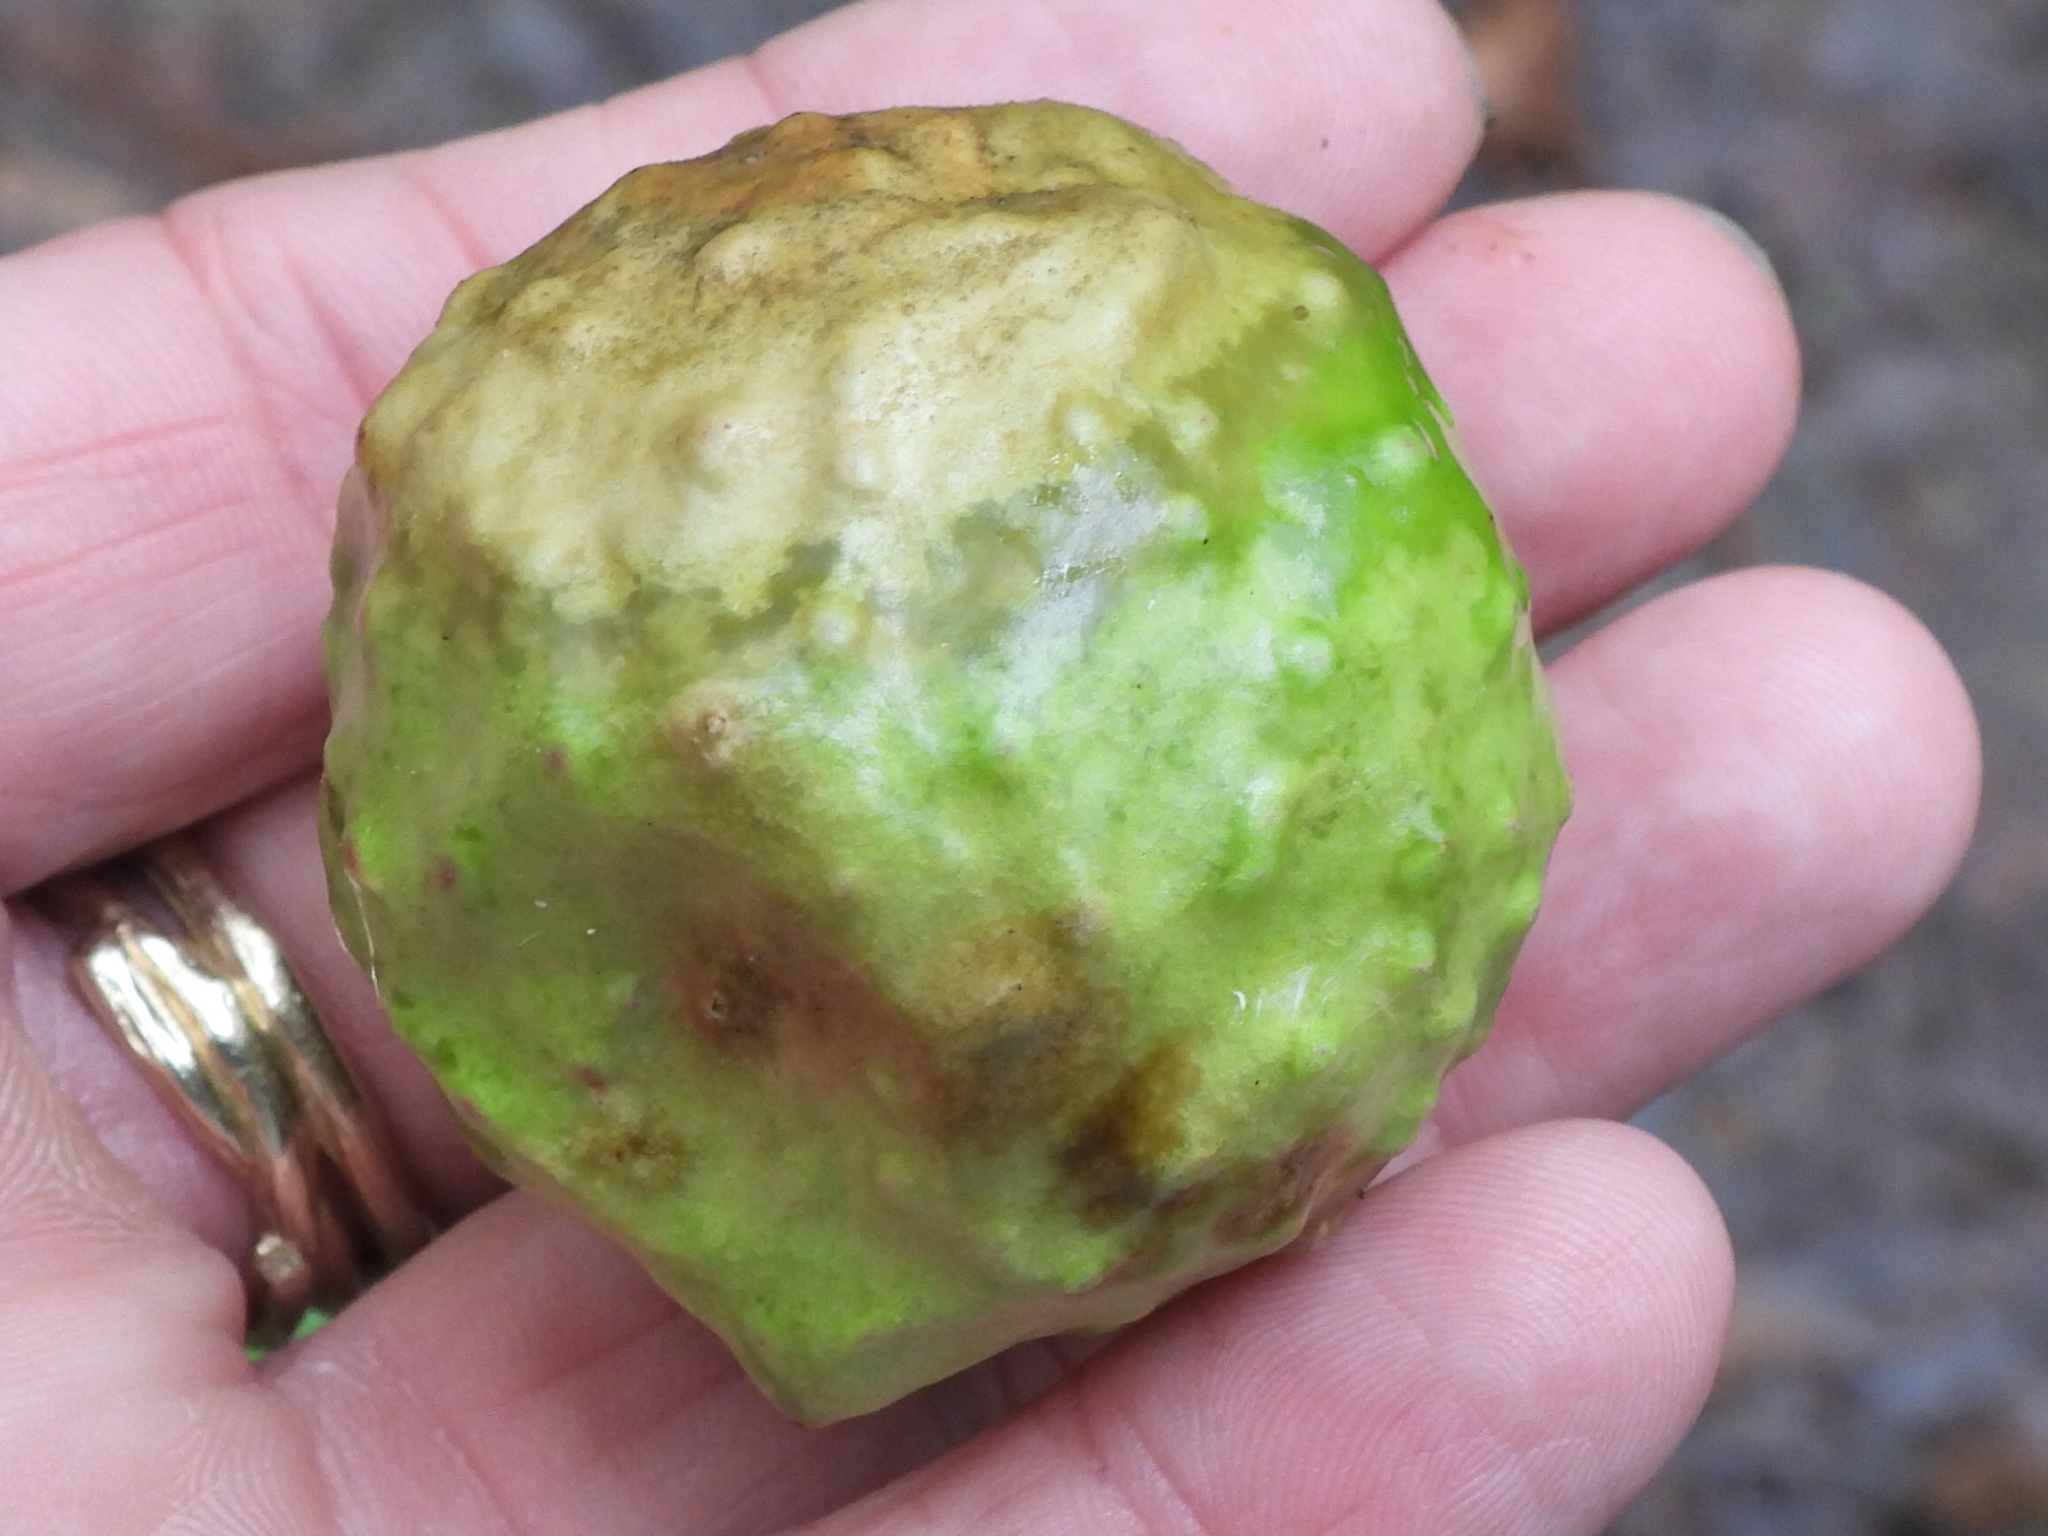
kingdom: Animalia
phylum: Arthropoda
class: Insecta
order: Hymenoptera
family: Cynipidae
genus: Amphibolips
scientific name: Amphibolips
